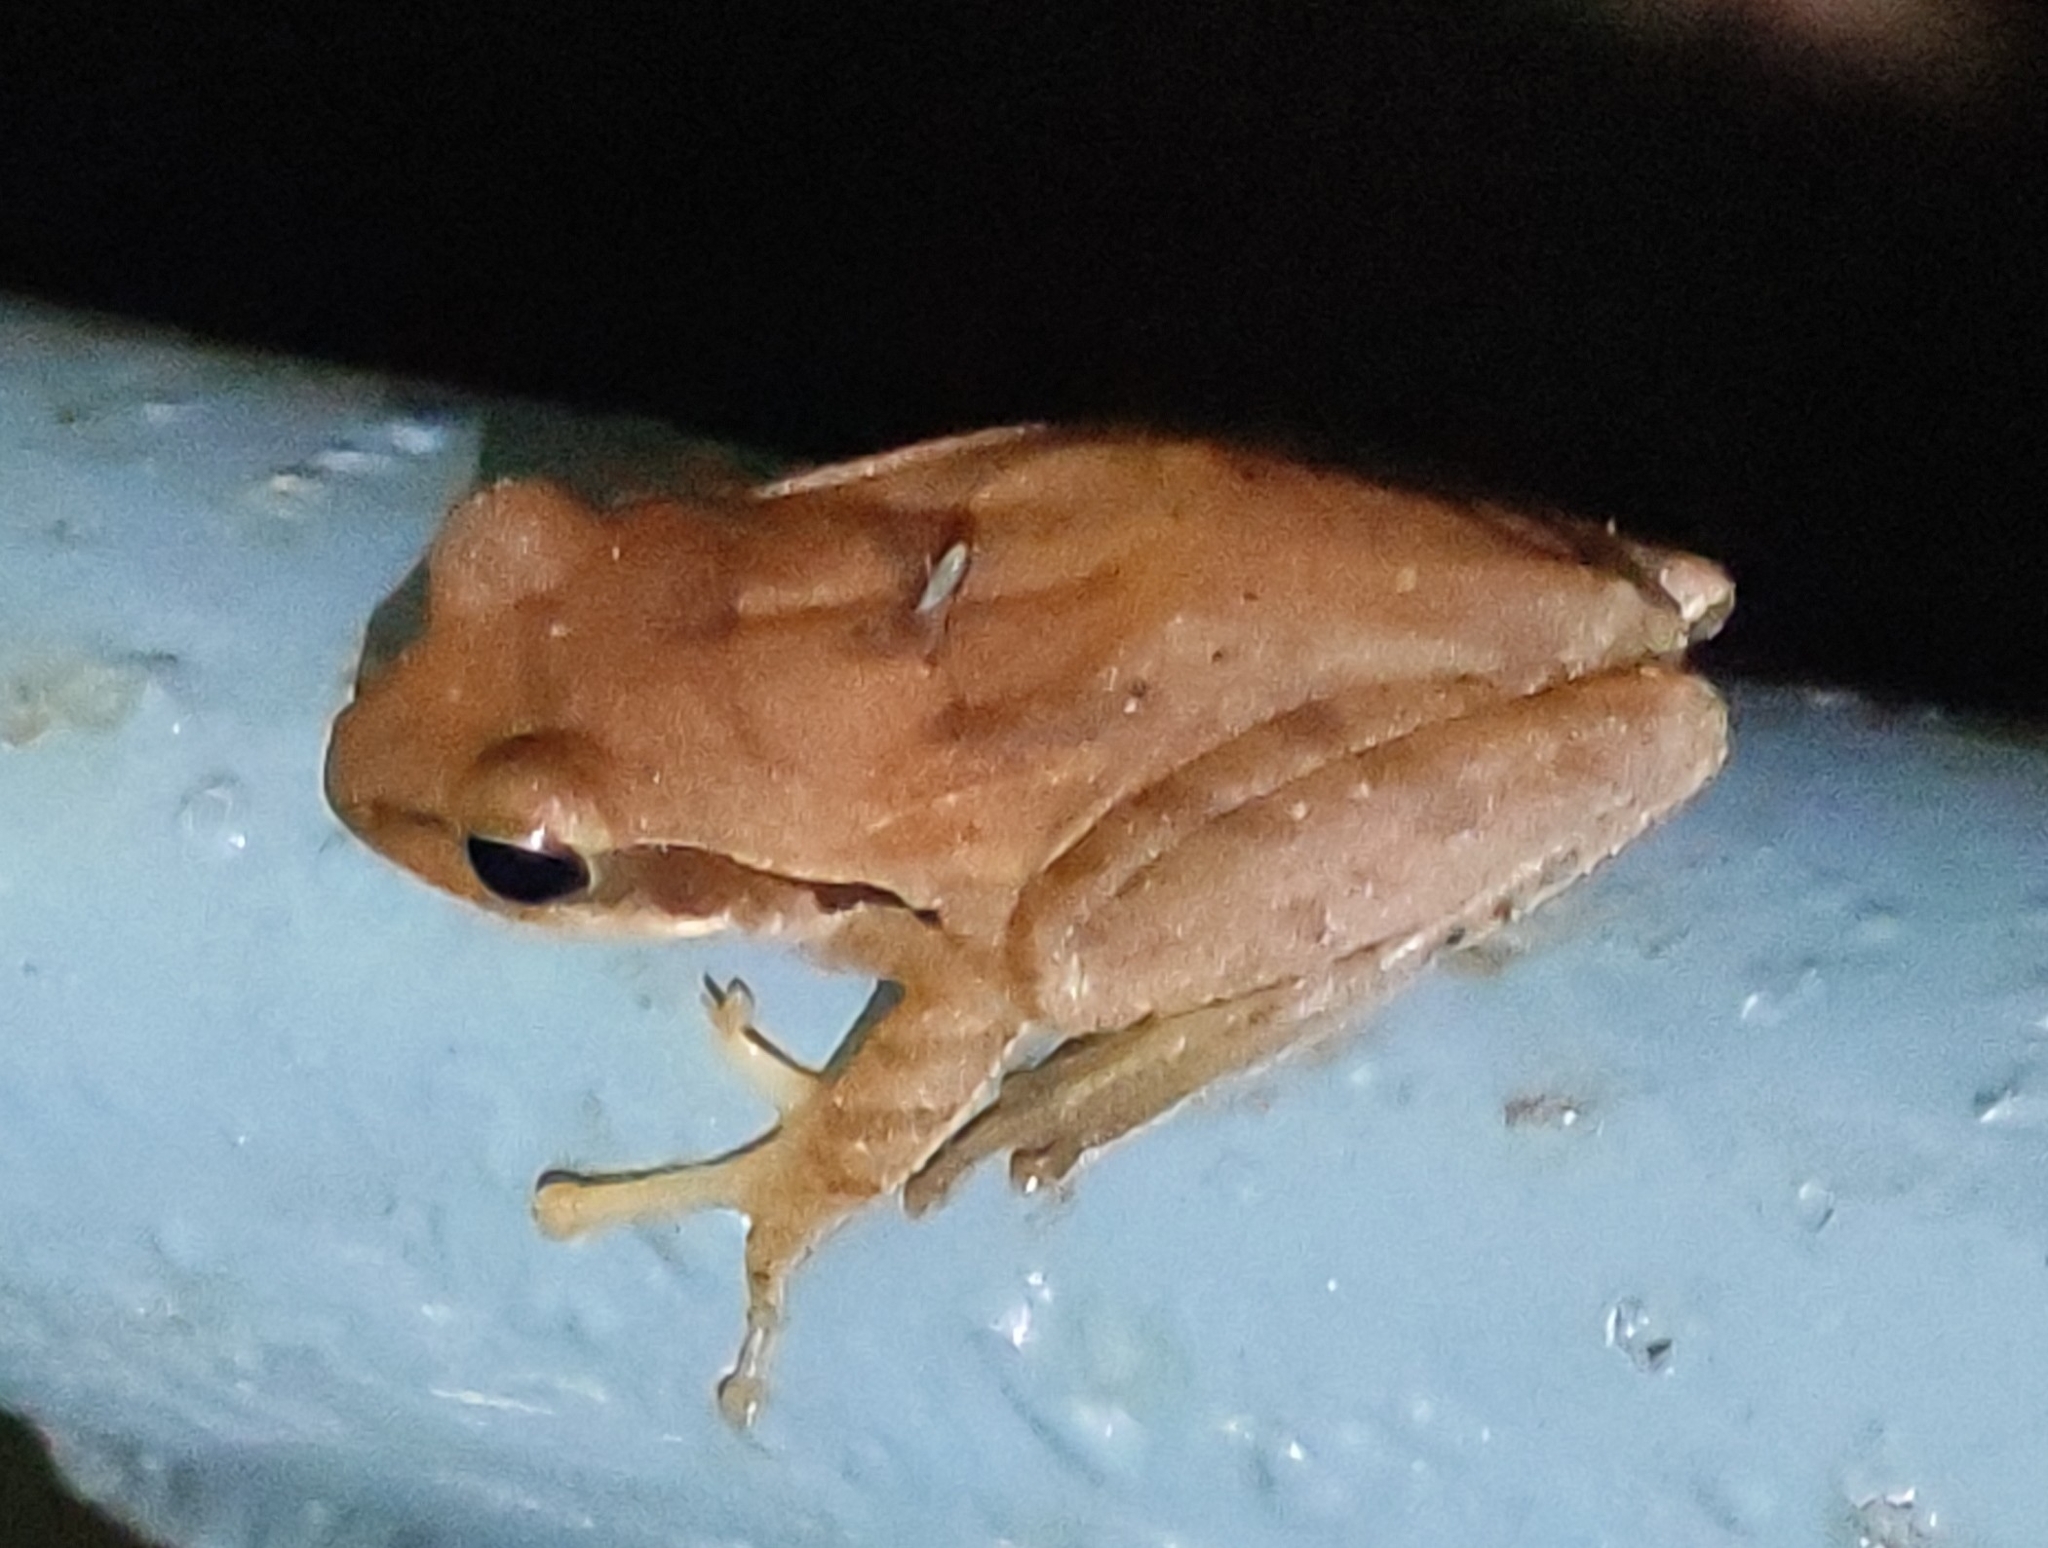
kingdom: Animalia
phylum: Chordata
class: Amphibia
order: Anura
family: Rhacophoridae
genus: Polypedates
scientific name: Polypedates maculatus
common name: Himalayan tree frog
